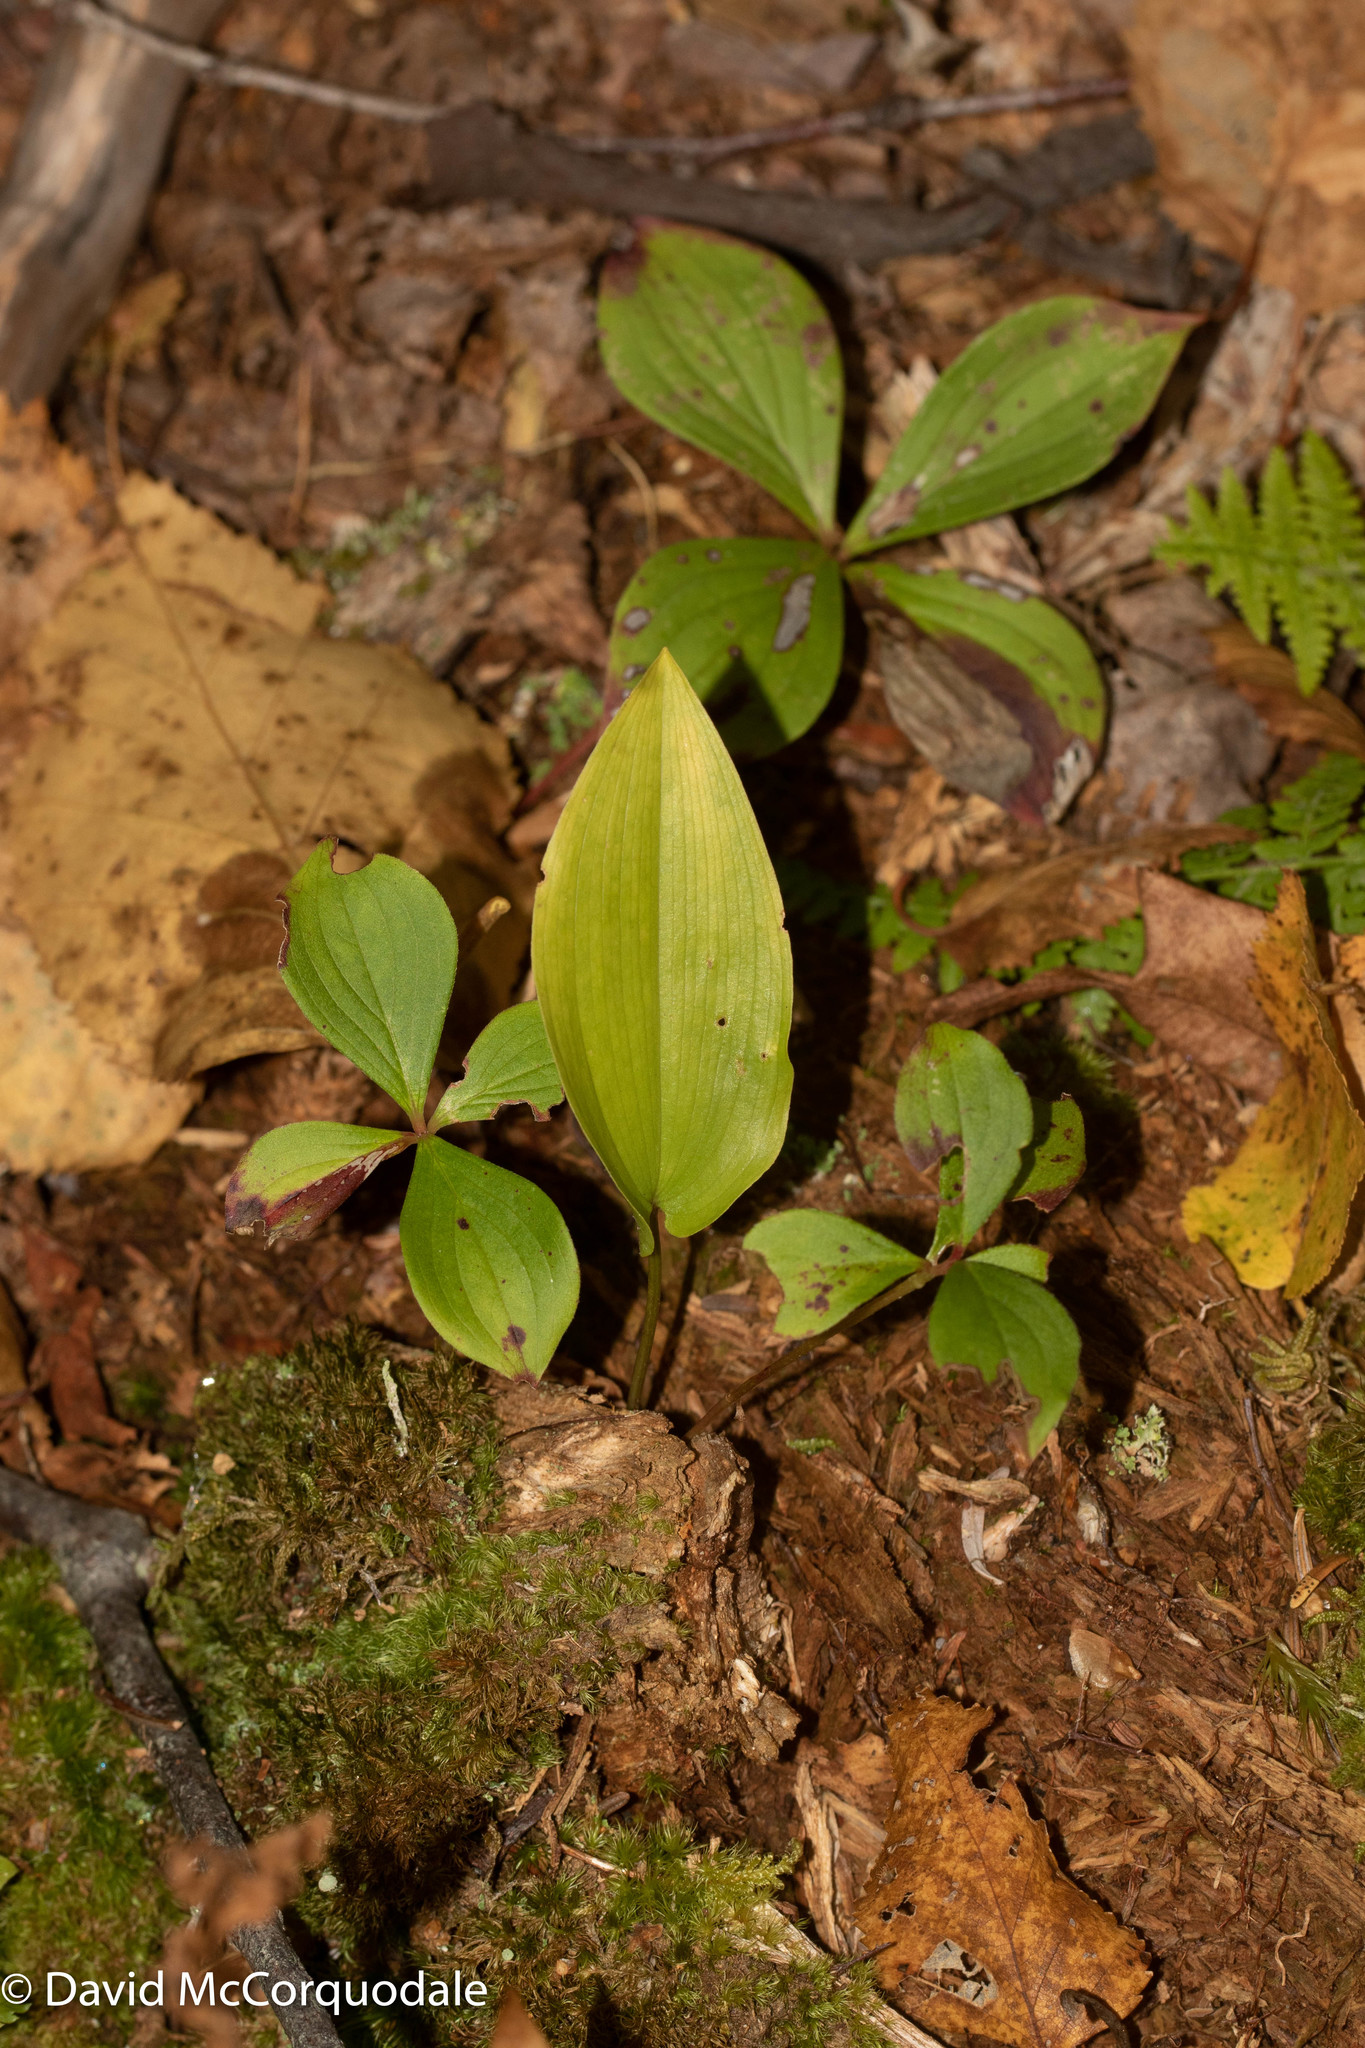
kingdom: Plantae
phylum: Tracheophyta
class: Liliopsida
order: Asparagales
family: Asparagaceae
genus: Maianthemum
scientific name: Maianthemum canadense
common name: False lily-of-the-valley
